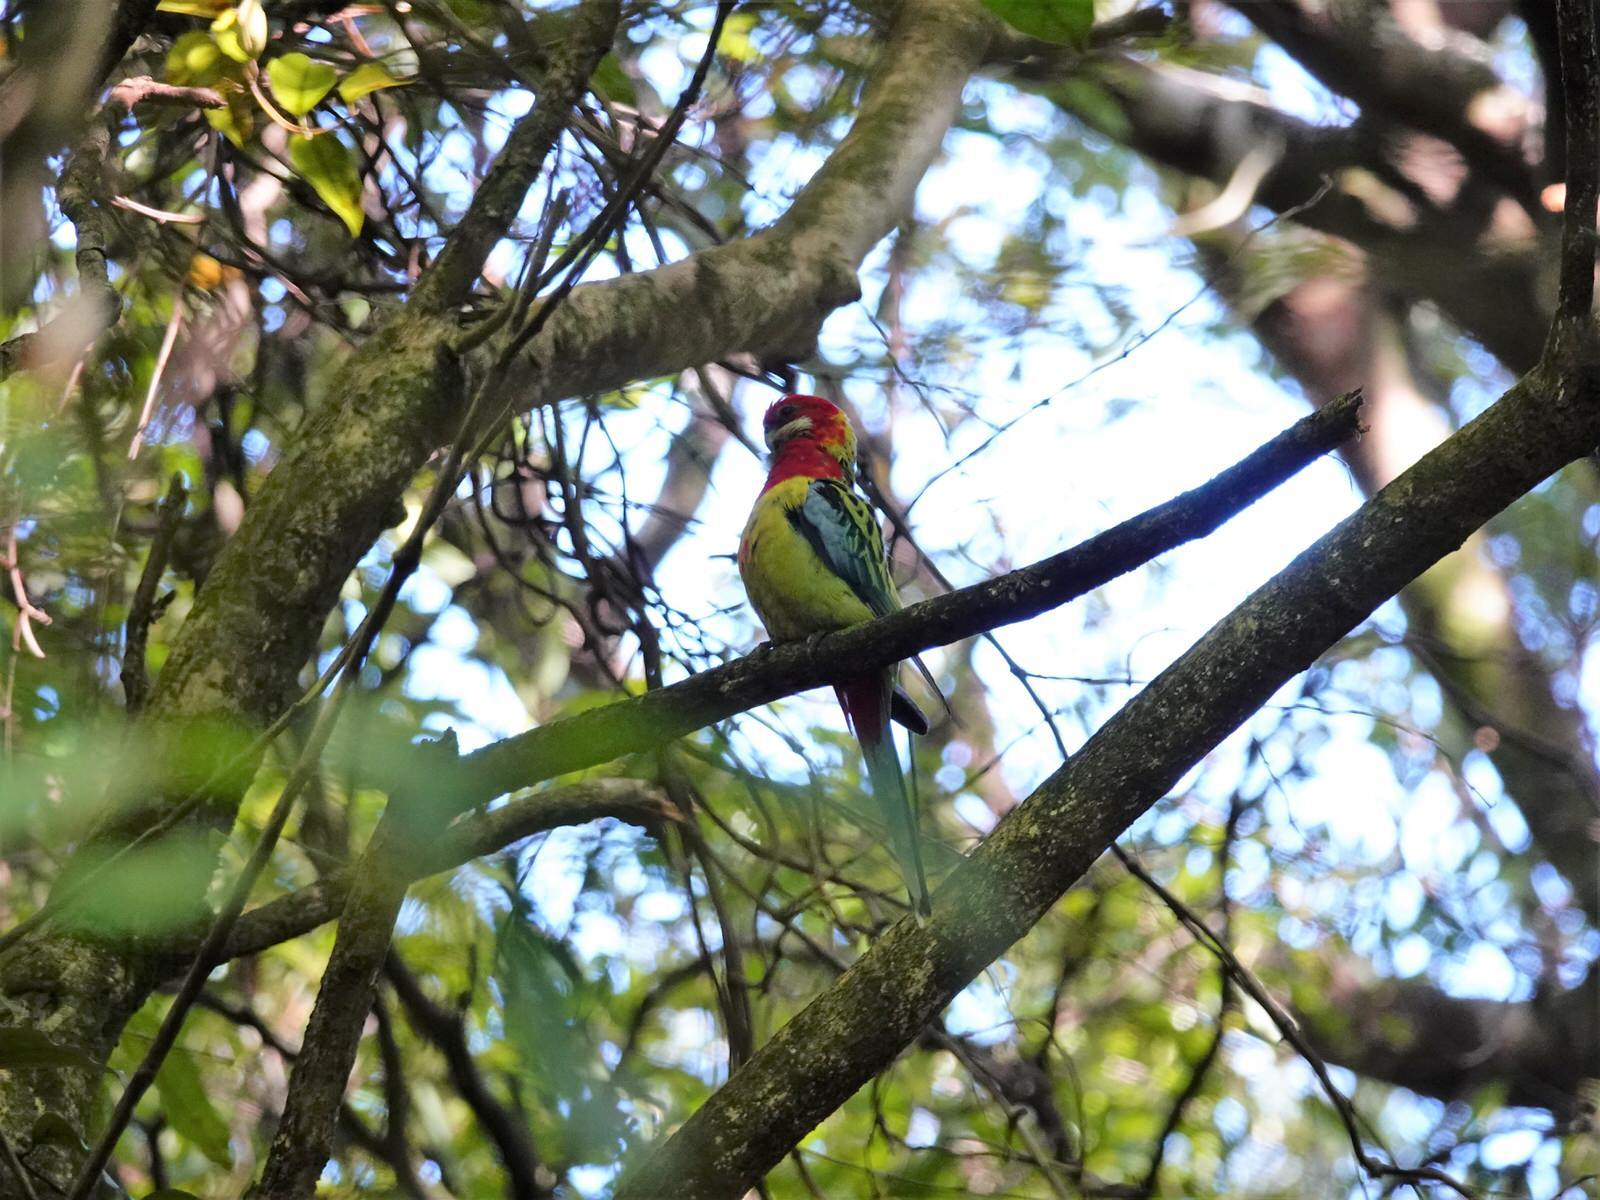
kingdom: Animalia
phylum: Chordata
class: Aves
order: Psittaciformes
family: Psittacidae
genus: Platycercus
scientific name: Platycercus eximius
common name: Eastern rosella
